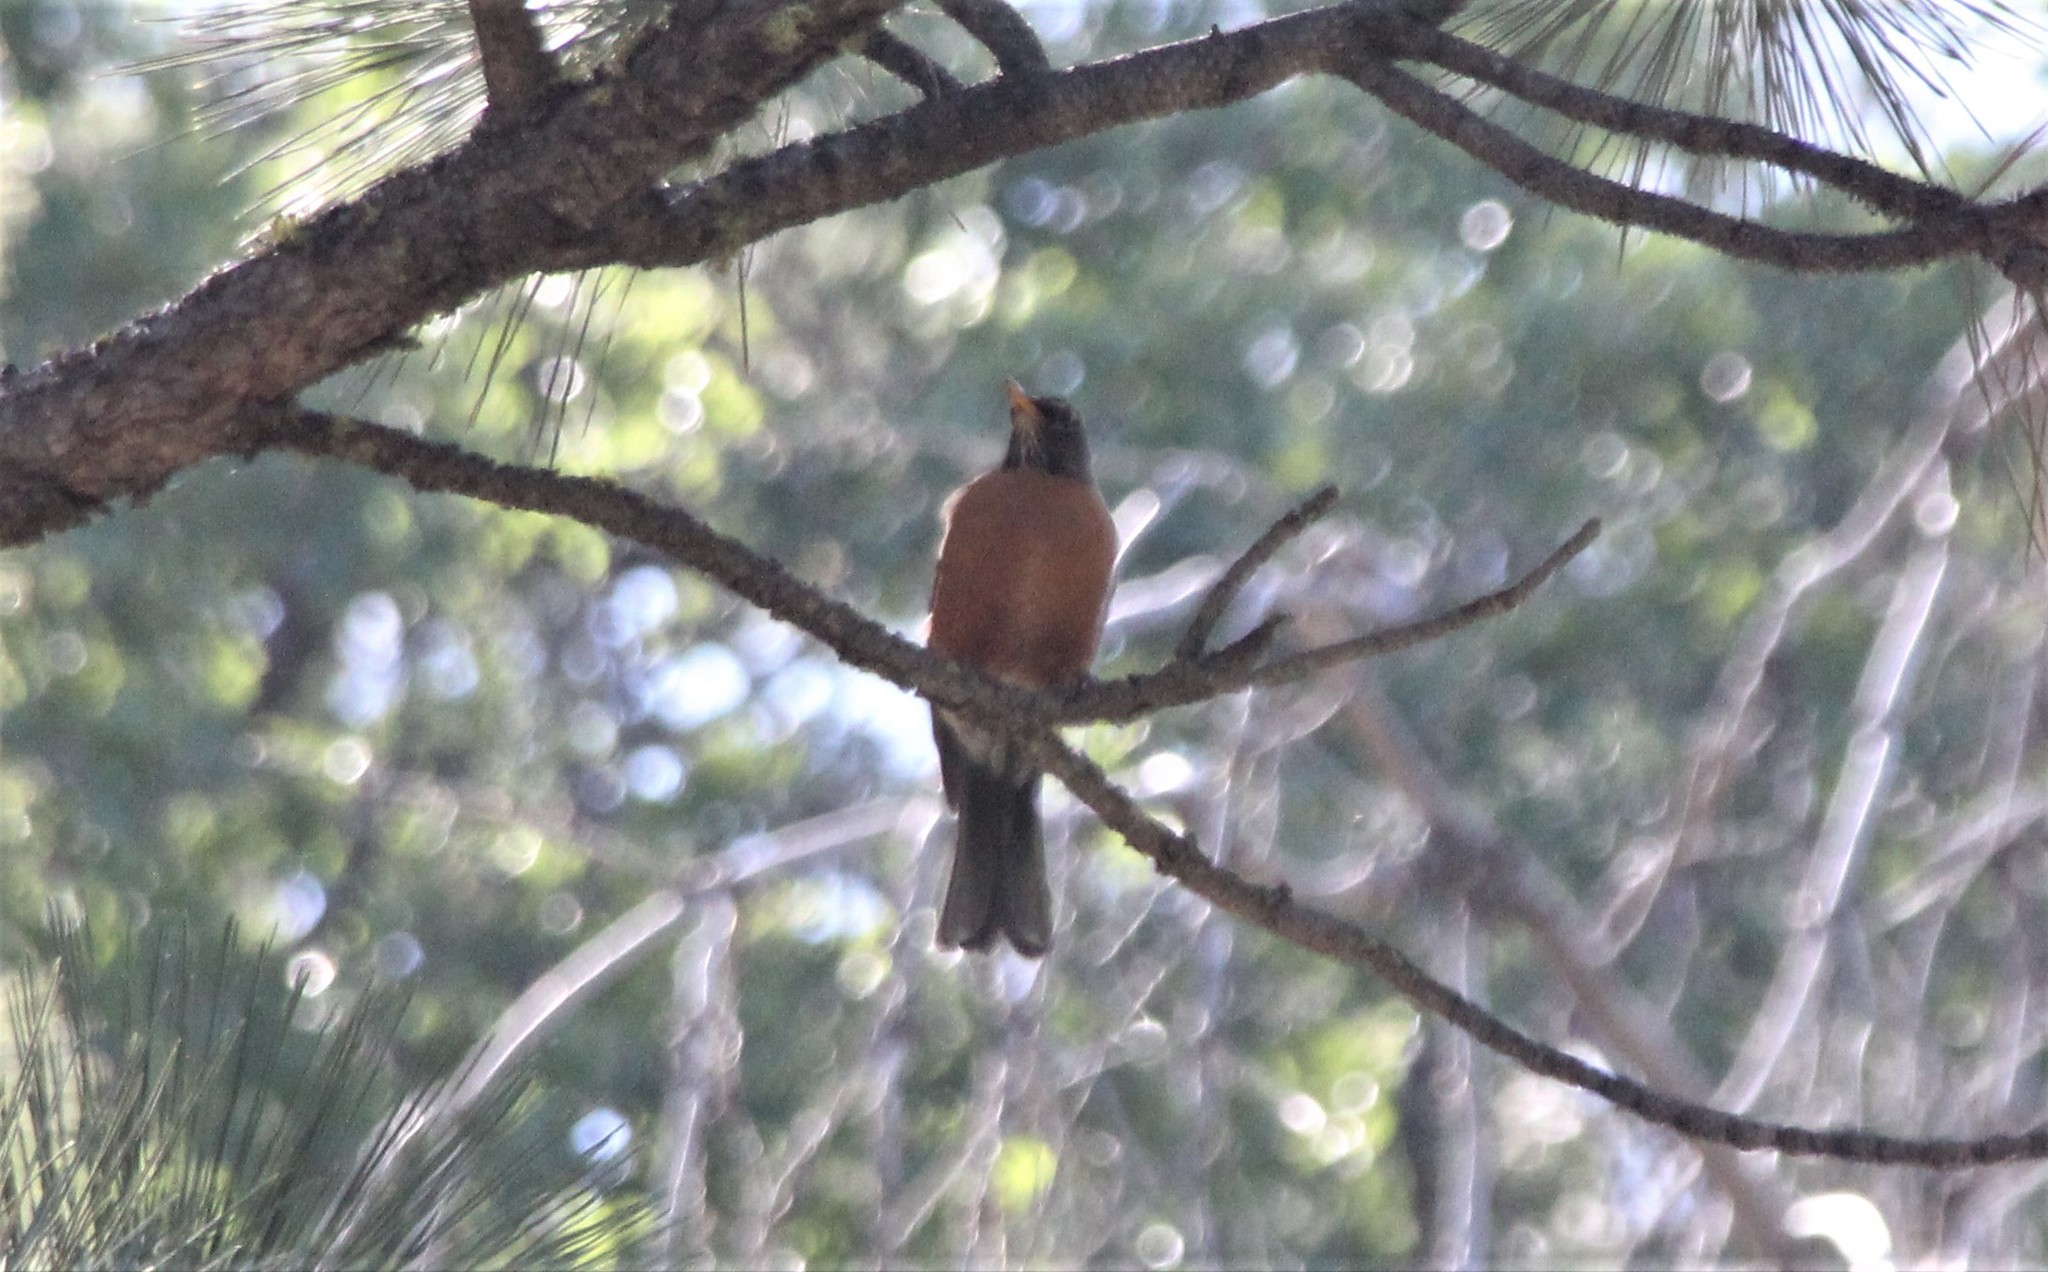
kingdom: Animalia
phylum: Chordata
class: Aves
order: Passeriformes
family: Turdidae
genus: Turdus
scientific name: Turdus migratorius
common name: American robin
